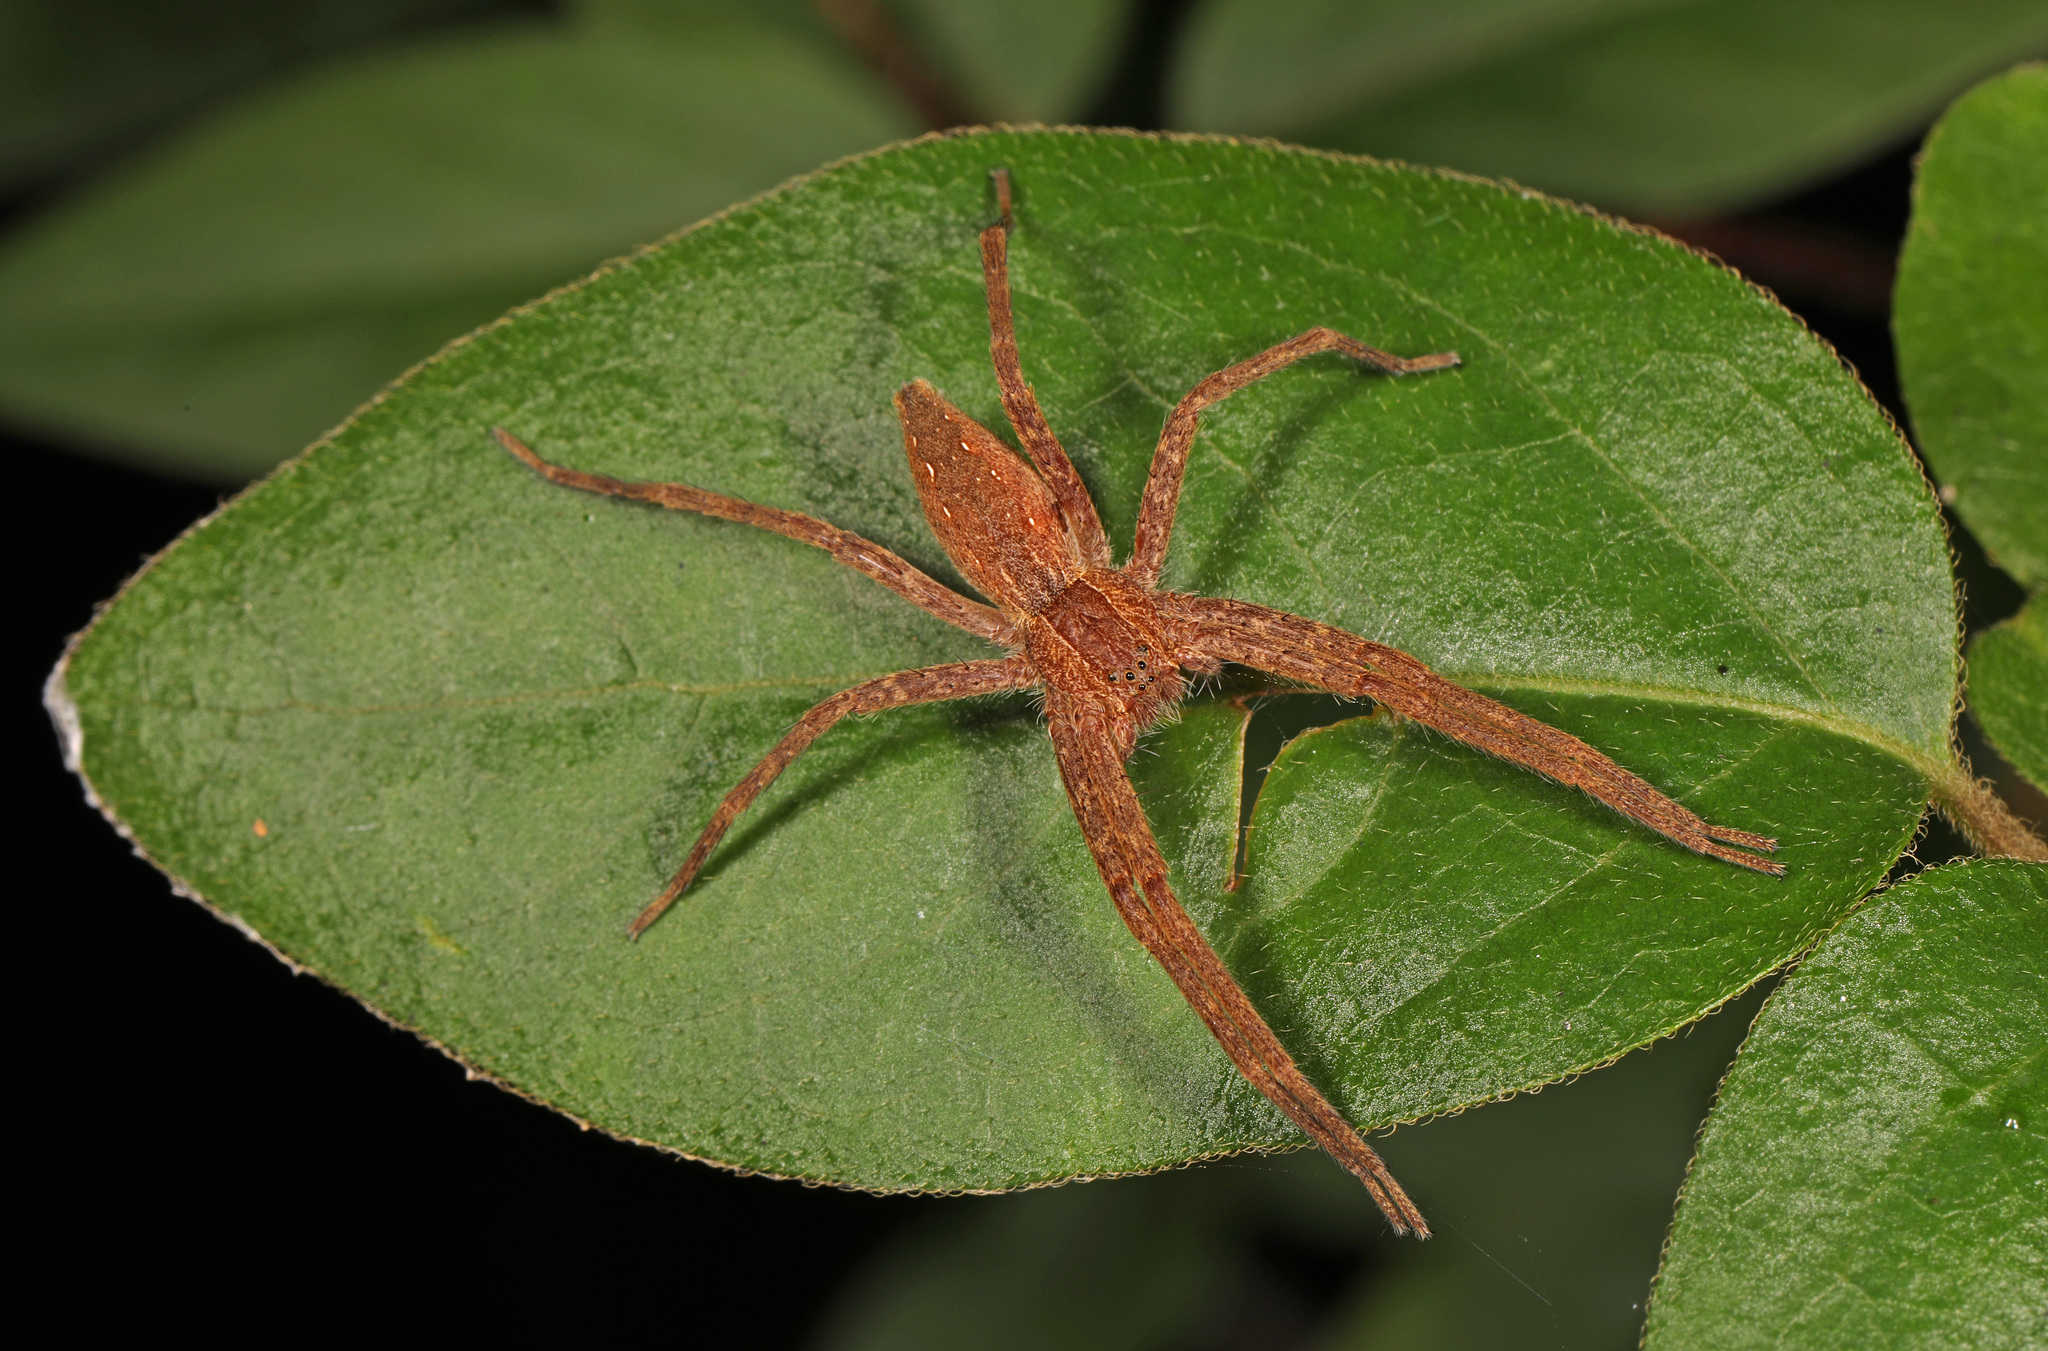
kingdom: Animalia
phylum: Arthropoda
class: Arachnida
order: Araneae
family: Pisauridae
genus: Pisaurina
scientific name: Pisaurina mira
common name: American nursery web spider
